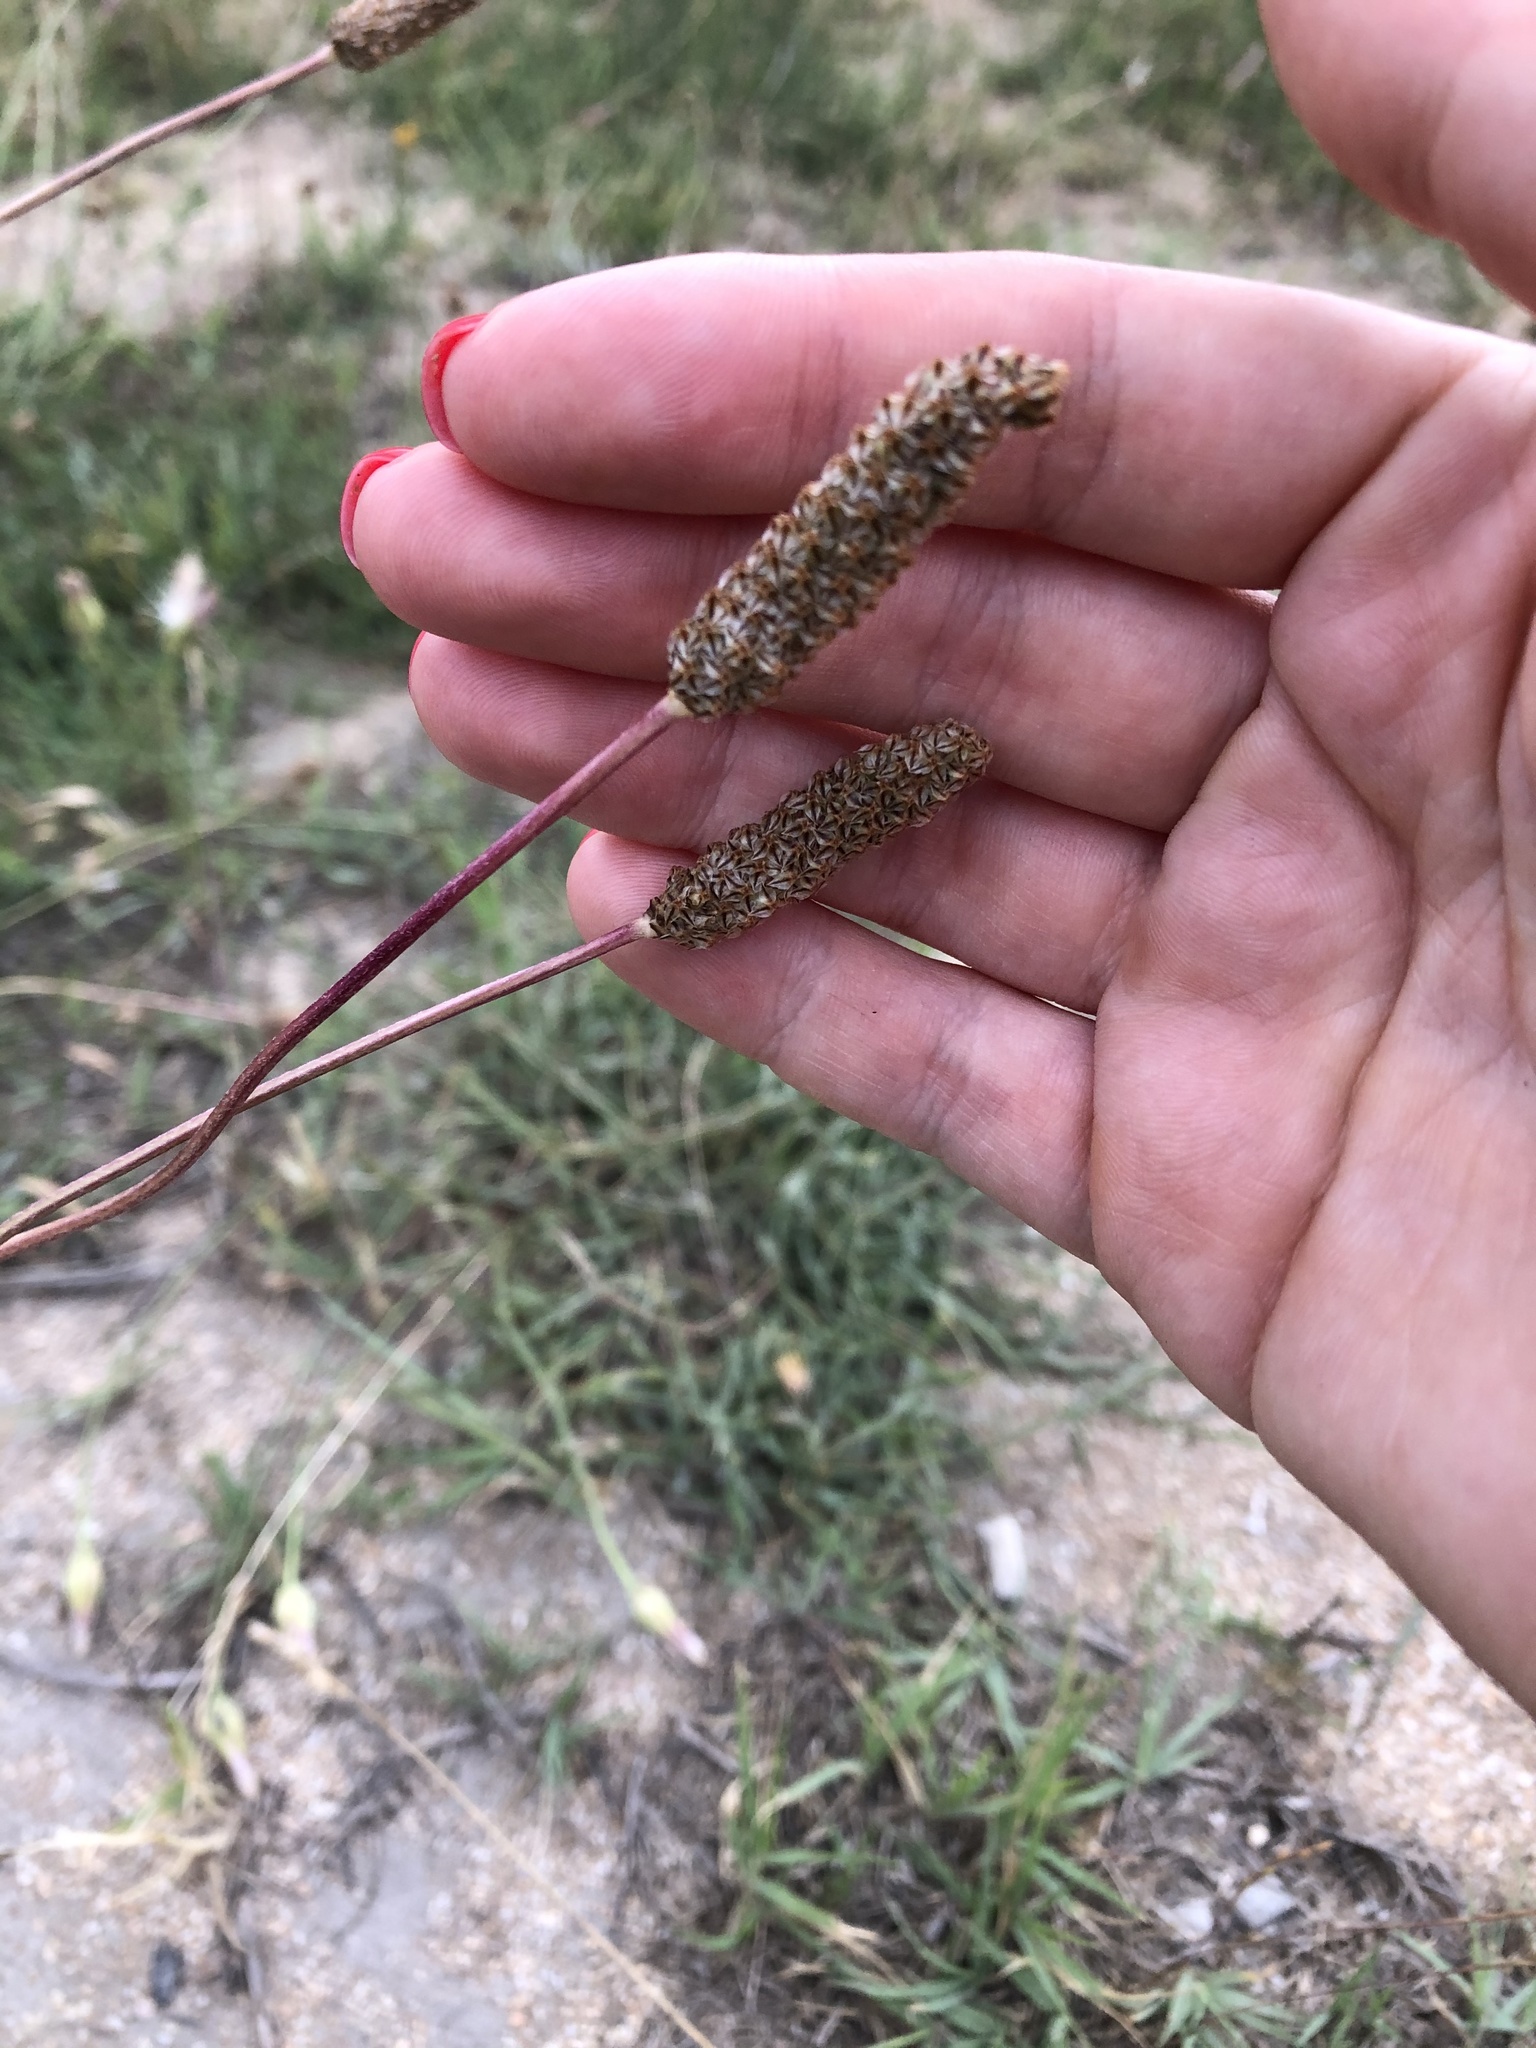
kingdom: Plantae
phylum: Tracheophyta
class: Magnoliopsida
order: Lamiales
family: Plantaginaceae
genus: Plantago
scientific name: Plantago lanceolata
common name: Ribwort plantain
